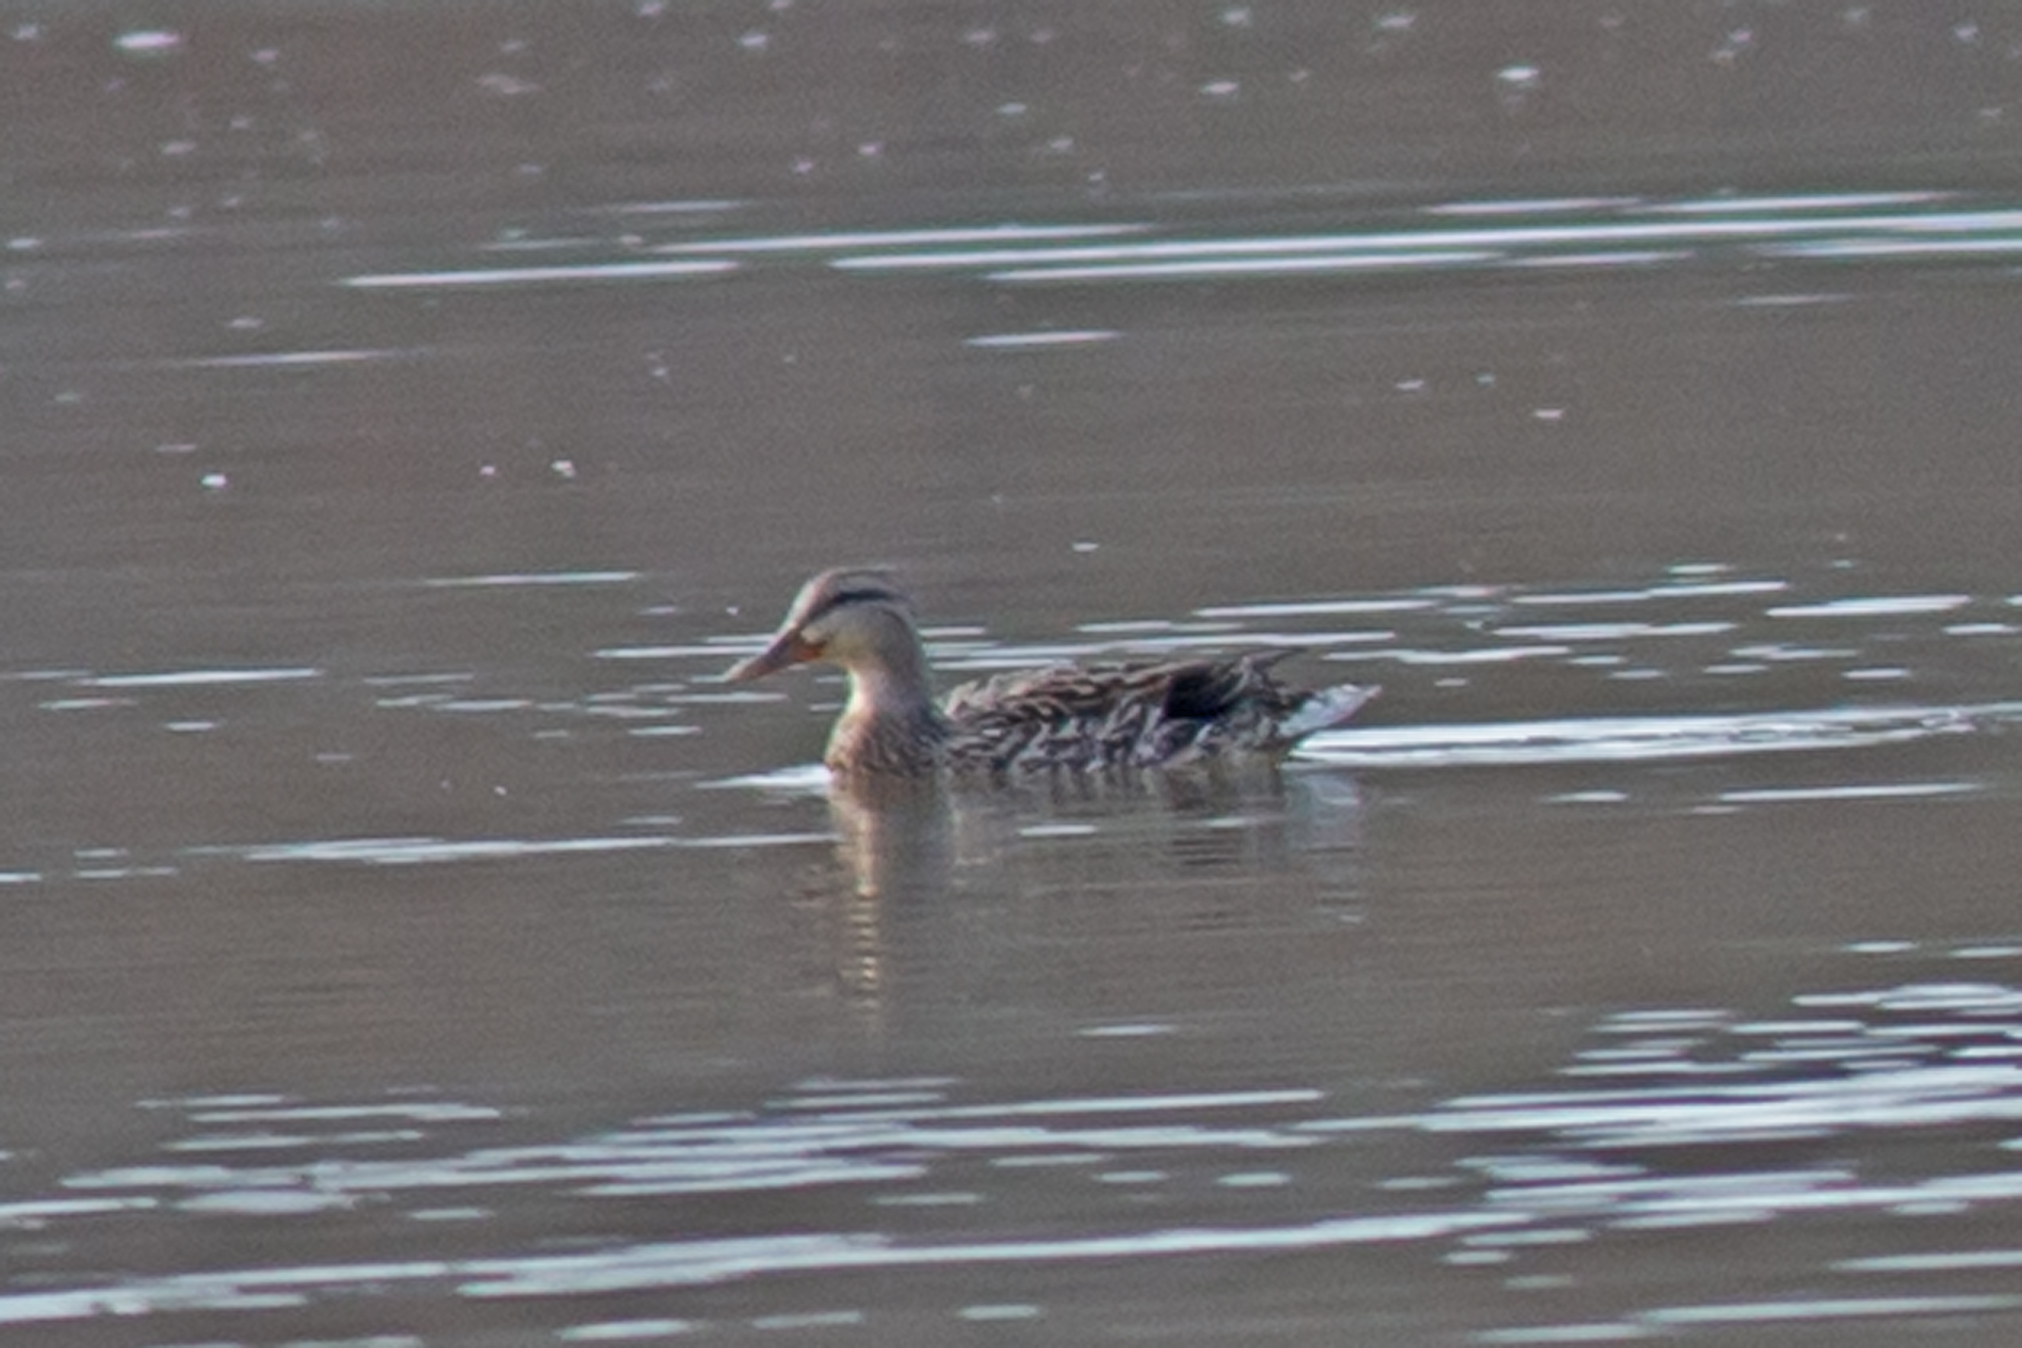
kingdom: Animalia
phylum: Chordata
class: Aves
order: Anseriformes
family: Anatidae
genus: Anas
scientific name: Anas platyrhynchos
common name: Mallard
